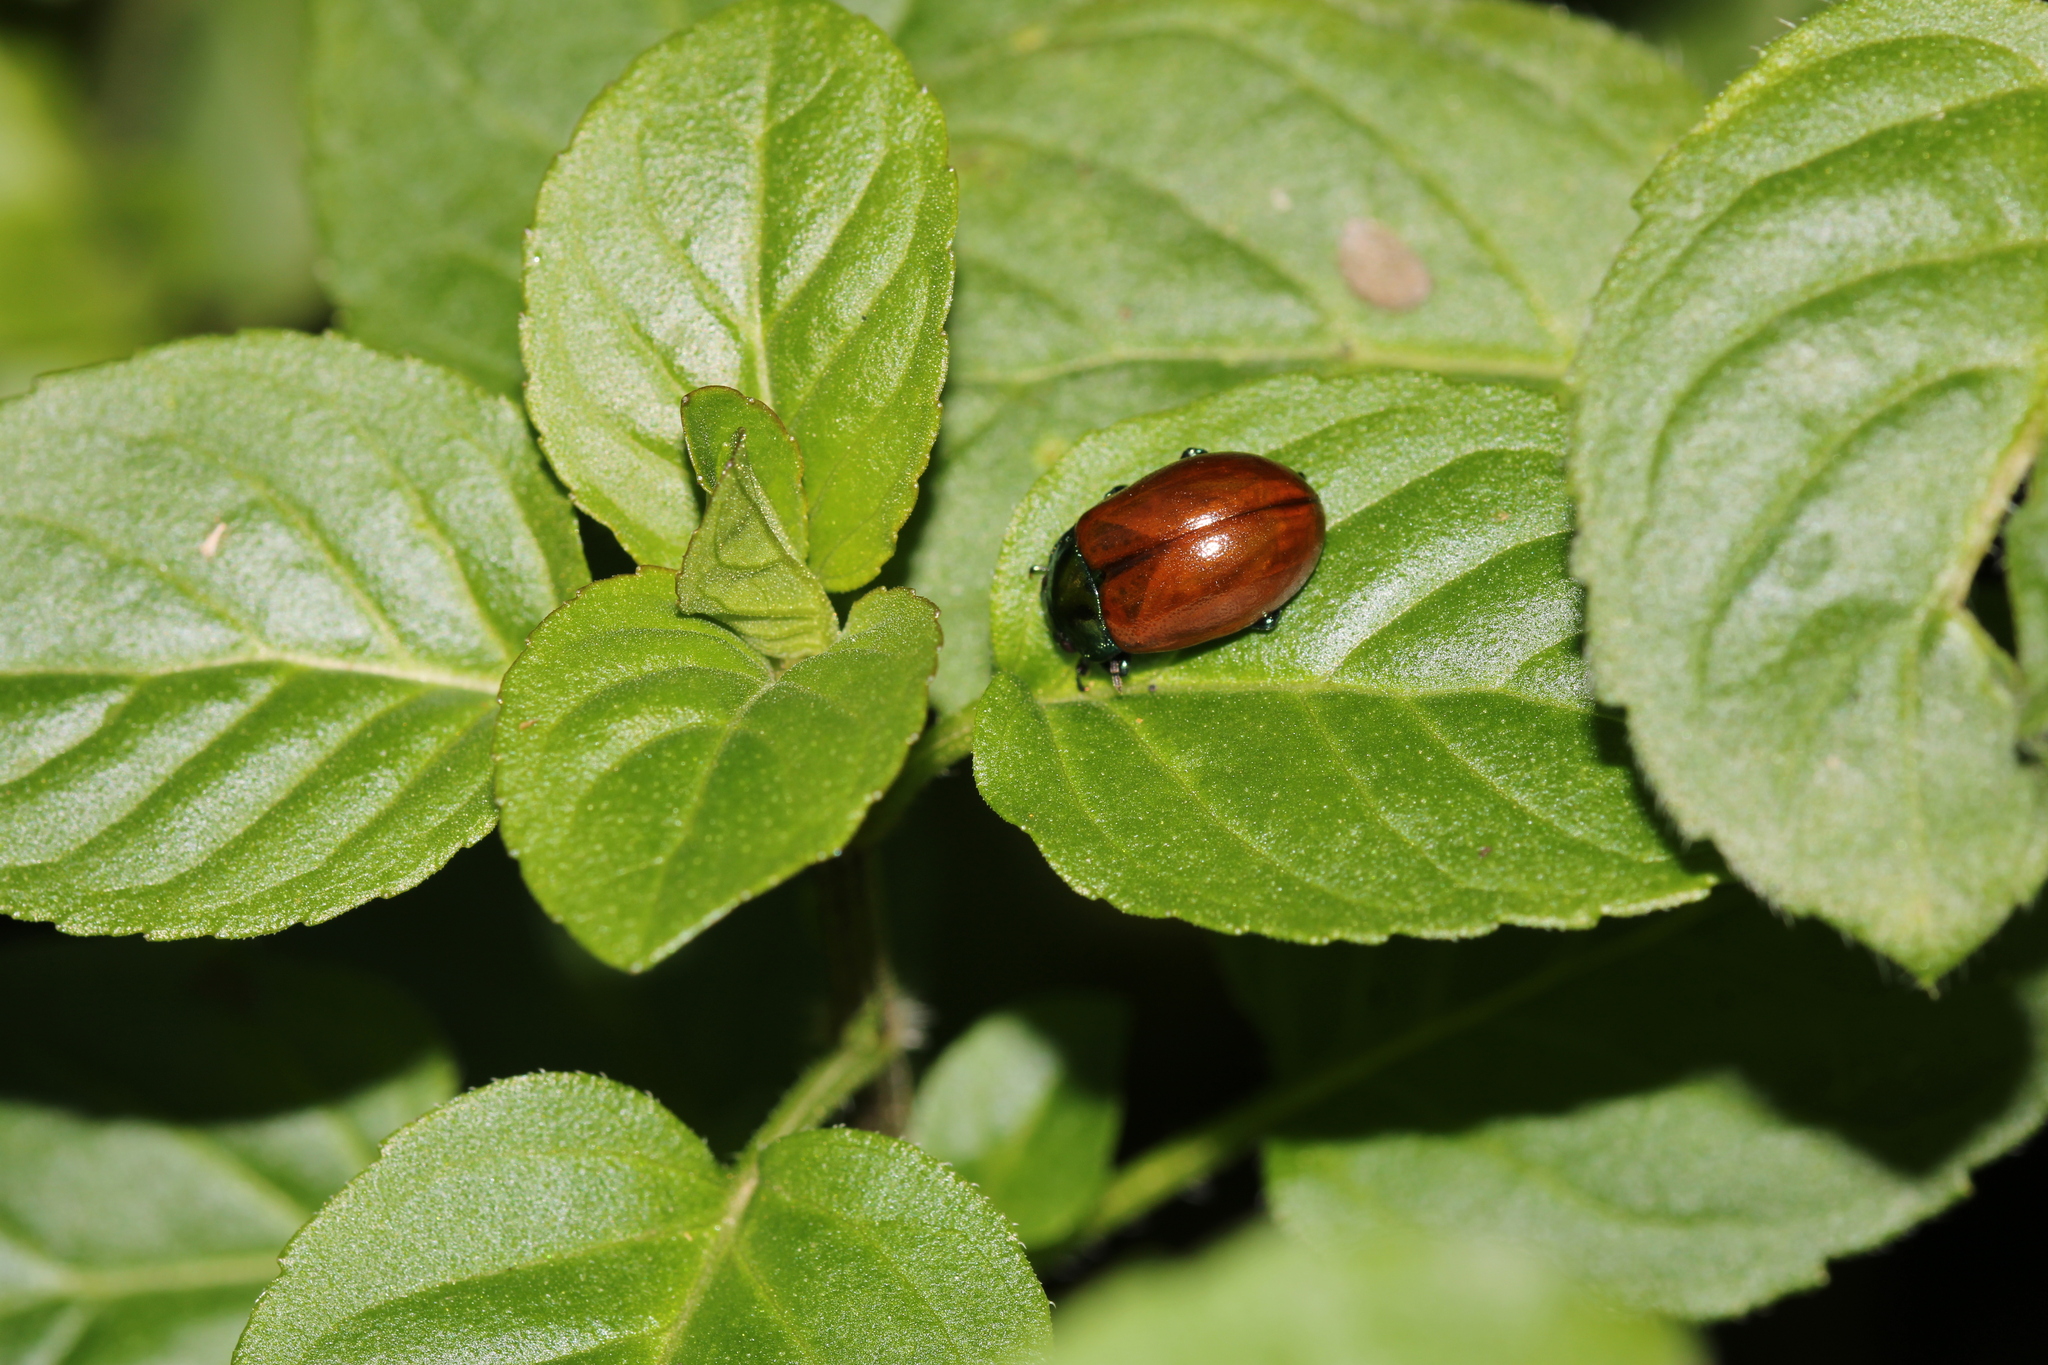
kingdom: Animalia
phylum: Arthropoda
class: Insecta
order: Coleoptera
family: Chrysomelidae
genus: Chrysomela
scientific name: Chrysomela polita
